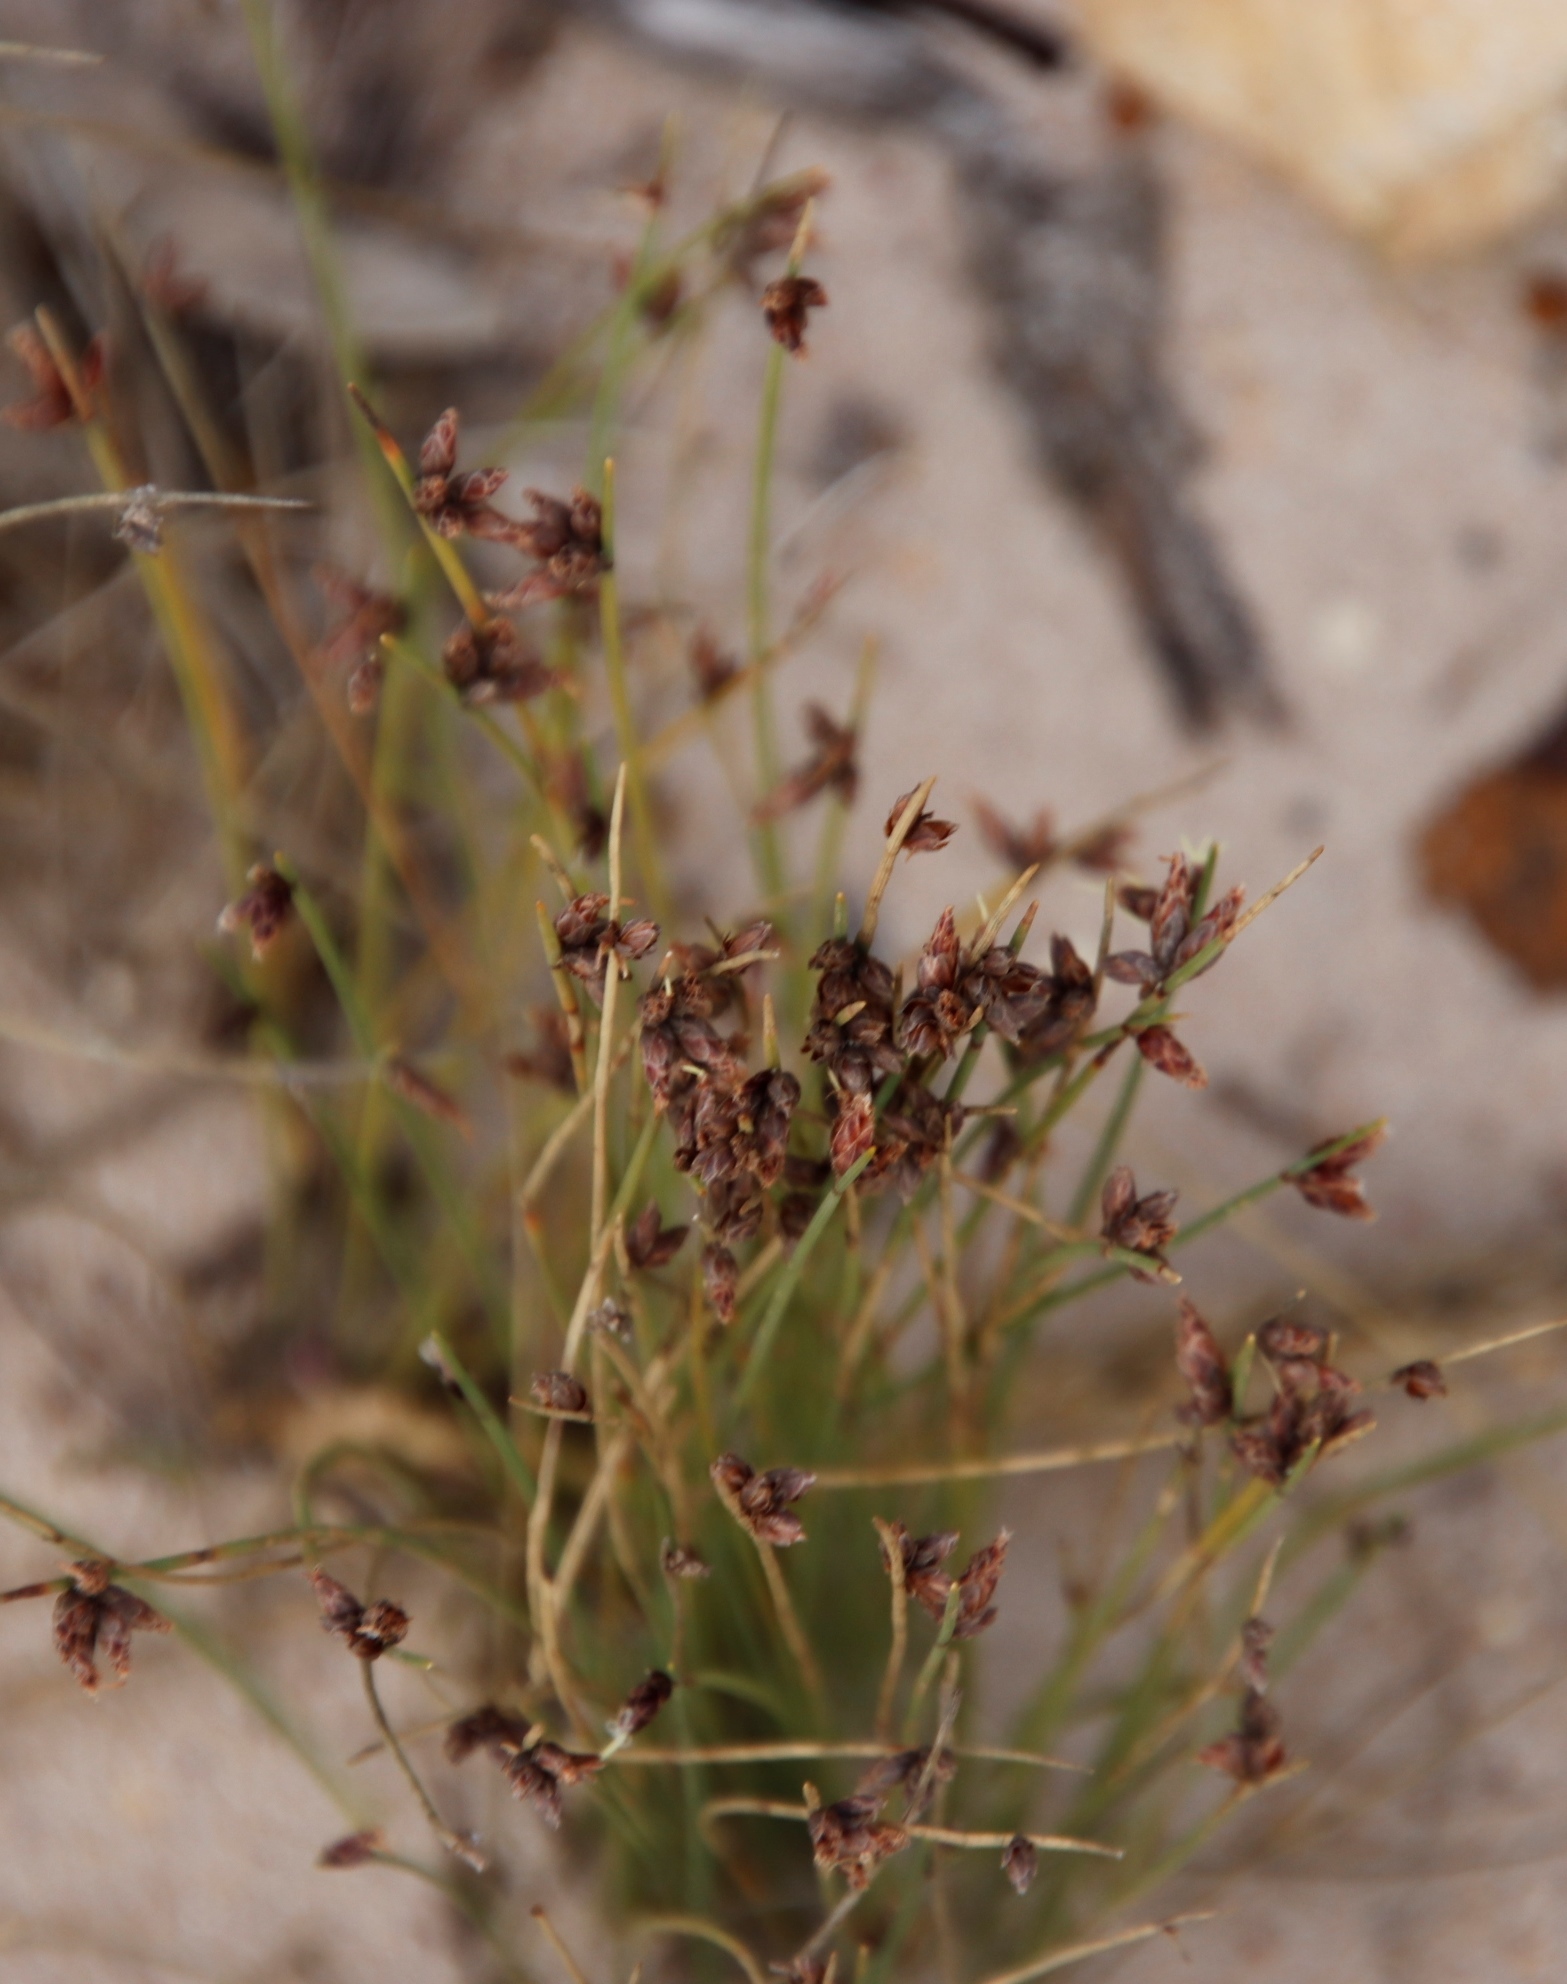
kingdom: Plantae
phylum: Tracheophyta
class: Liliopsida
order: Poales
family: Cyperaceae
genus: Ficinia
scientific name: Ficinia lateralis
